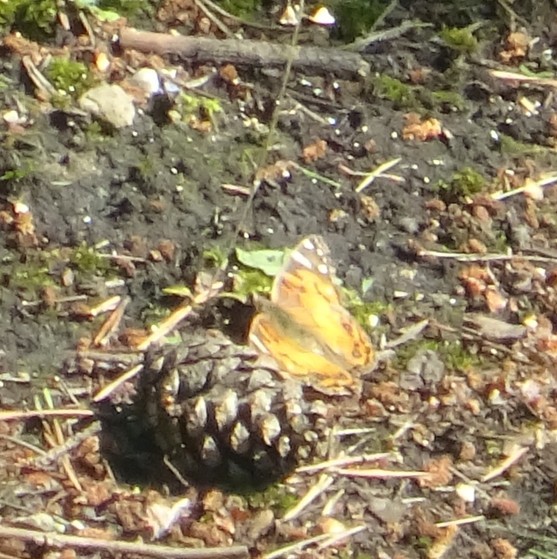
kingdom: Animalia
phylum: Arthropoda
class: Insecta
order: Lepidoptera
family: Nymphalidae
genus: Vanessa
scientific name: Vanessa virginiensis
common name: American lady
